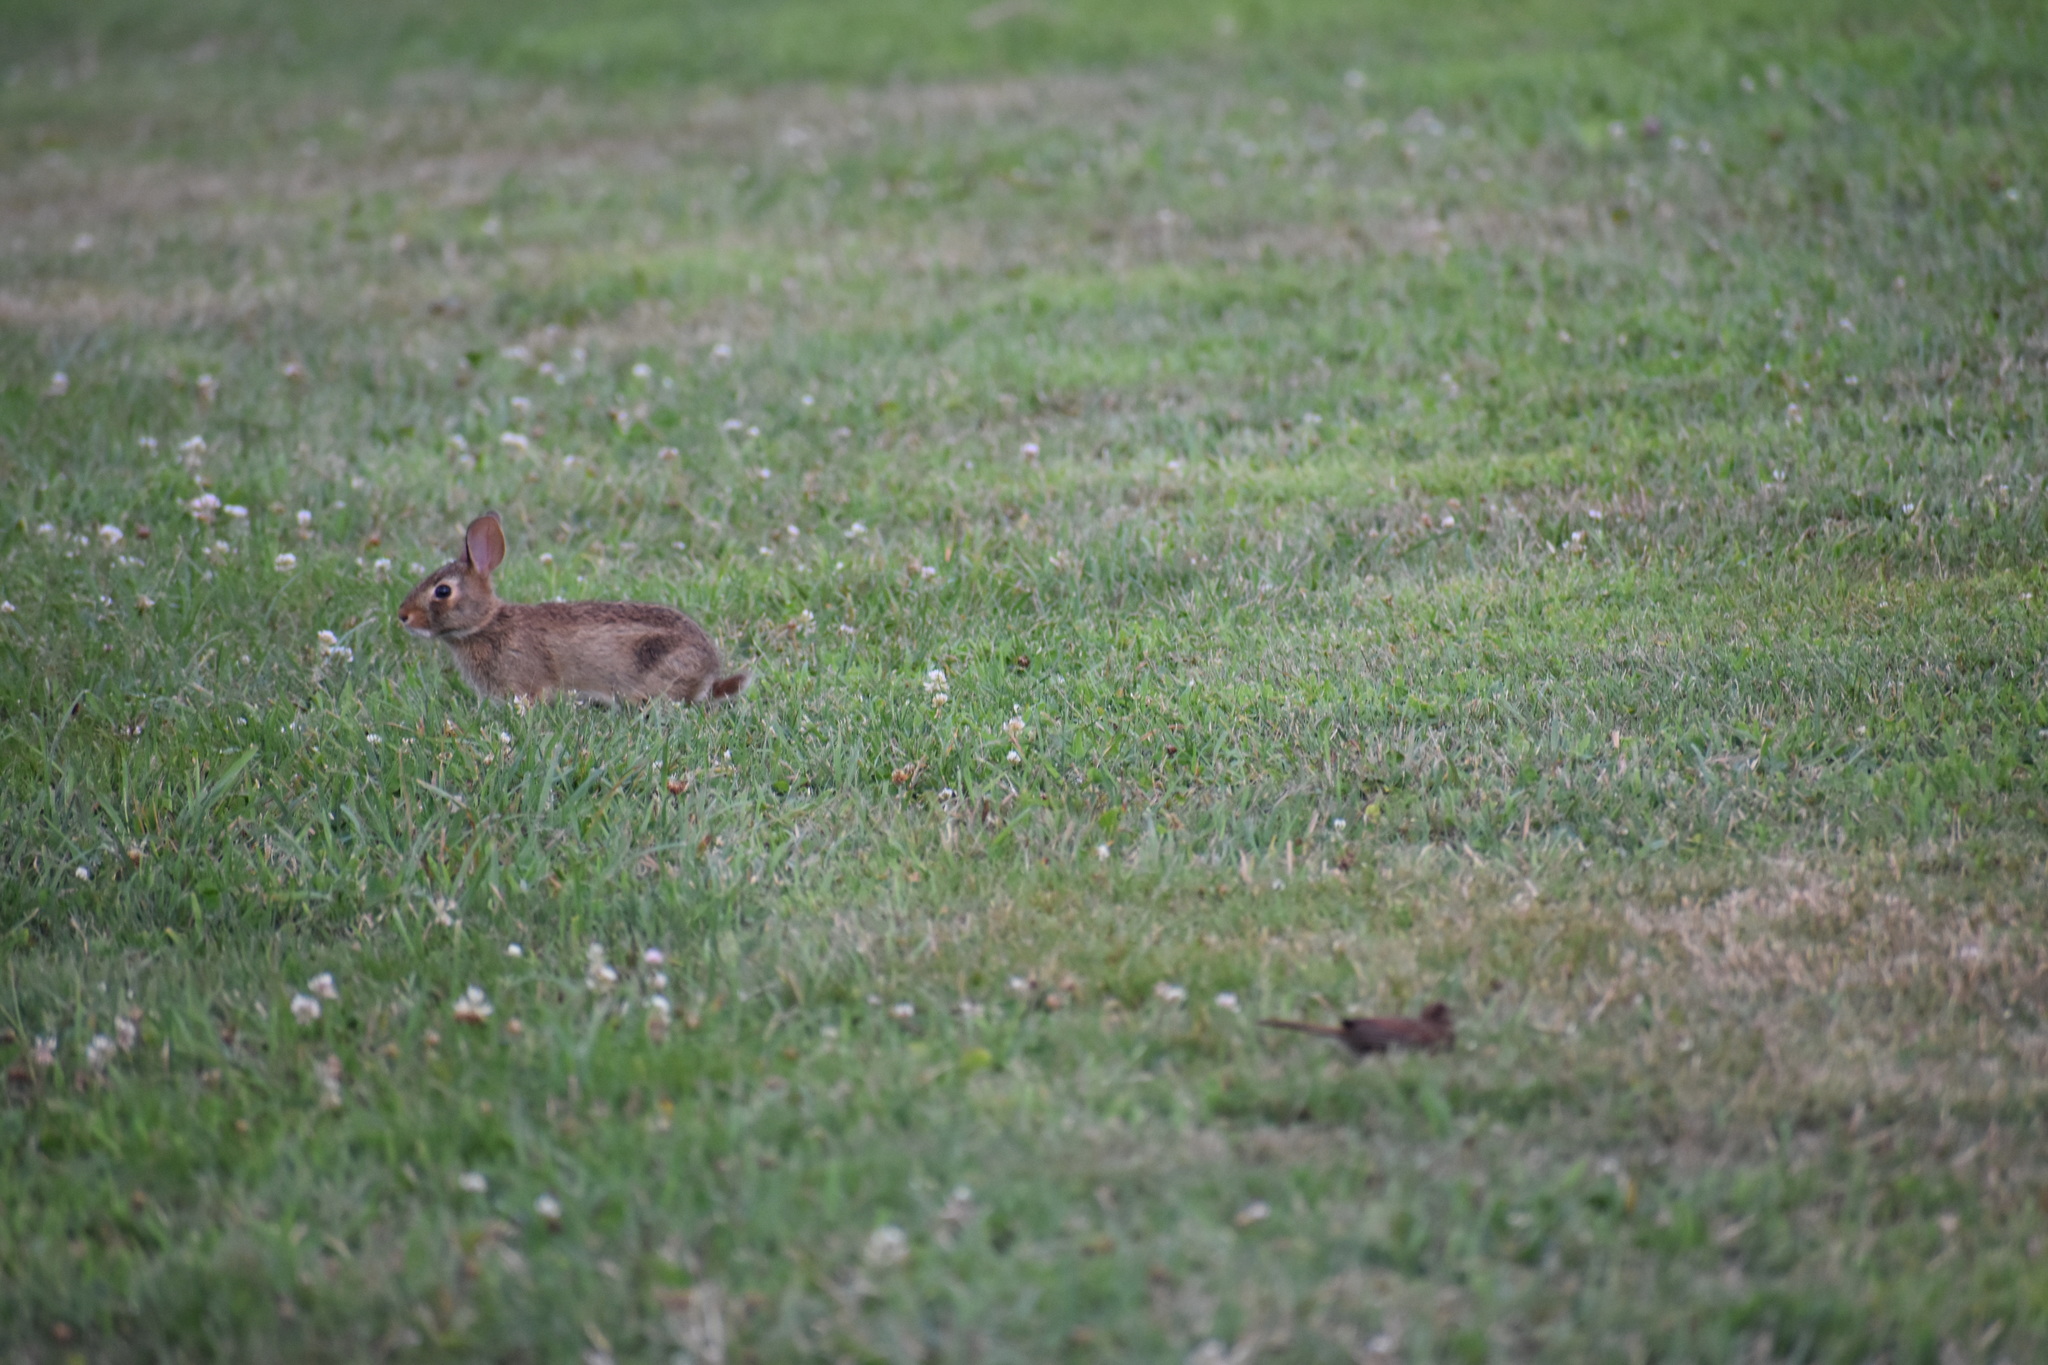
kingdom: Animalia
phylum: Chordata
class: Mammalia
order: Lagomorpha
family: Leporidae
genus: Sylvilagus
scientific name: Sylvilagus floridanus
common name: Eastern cottontail
